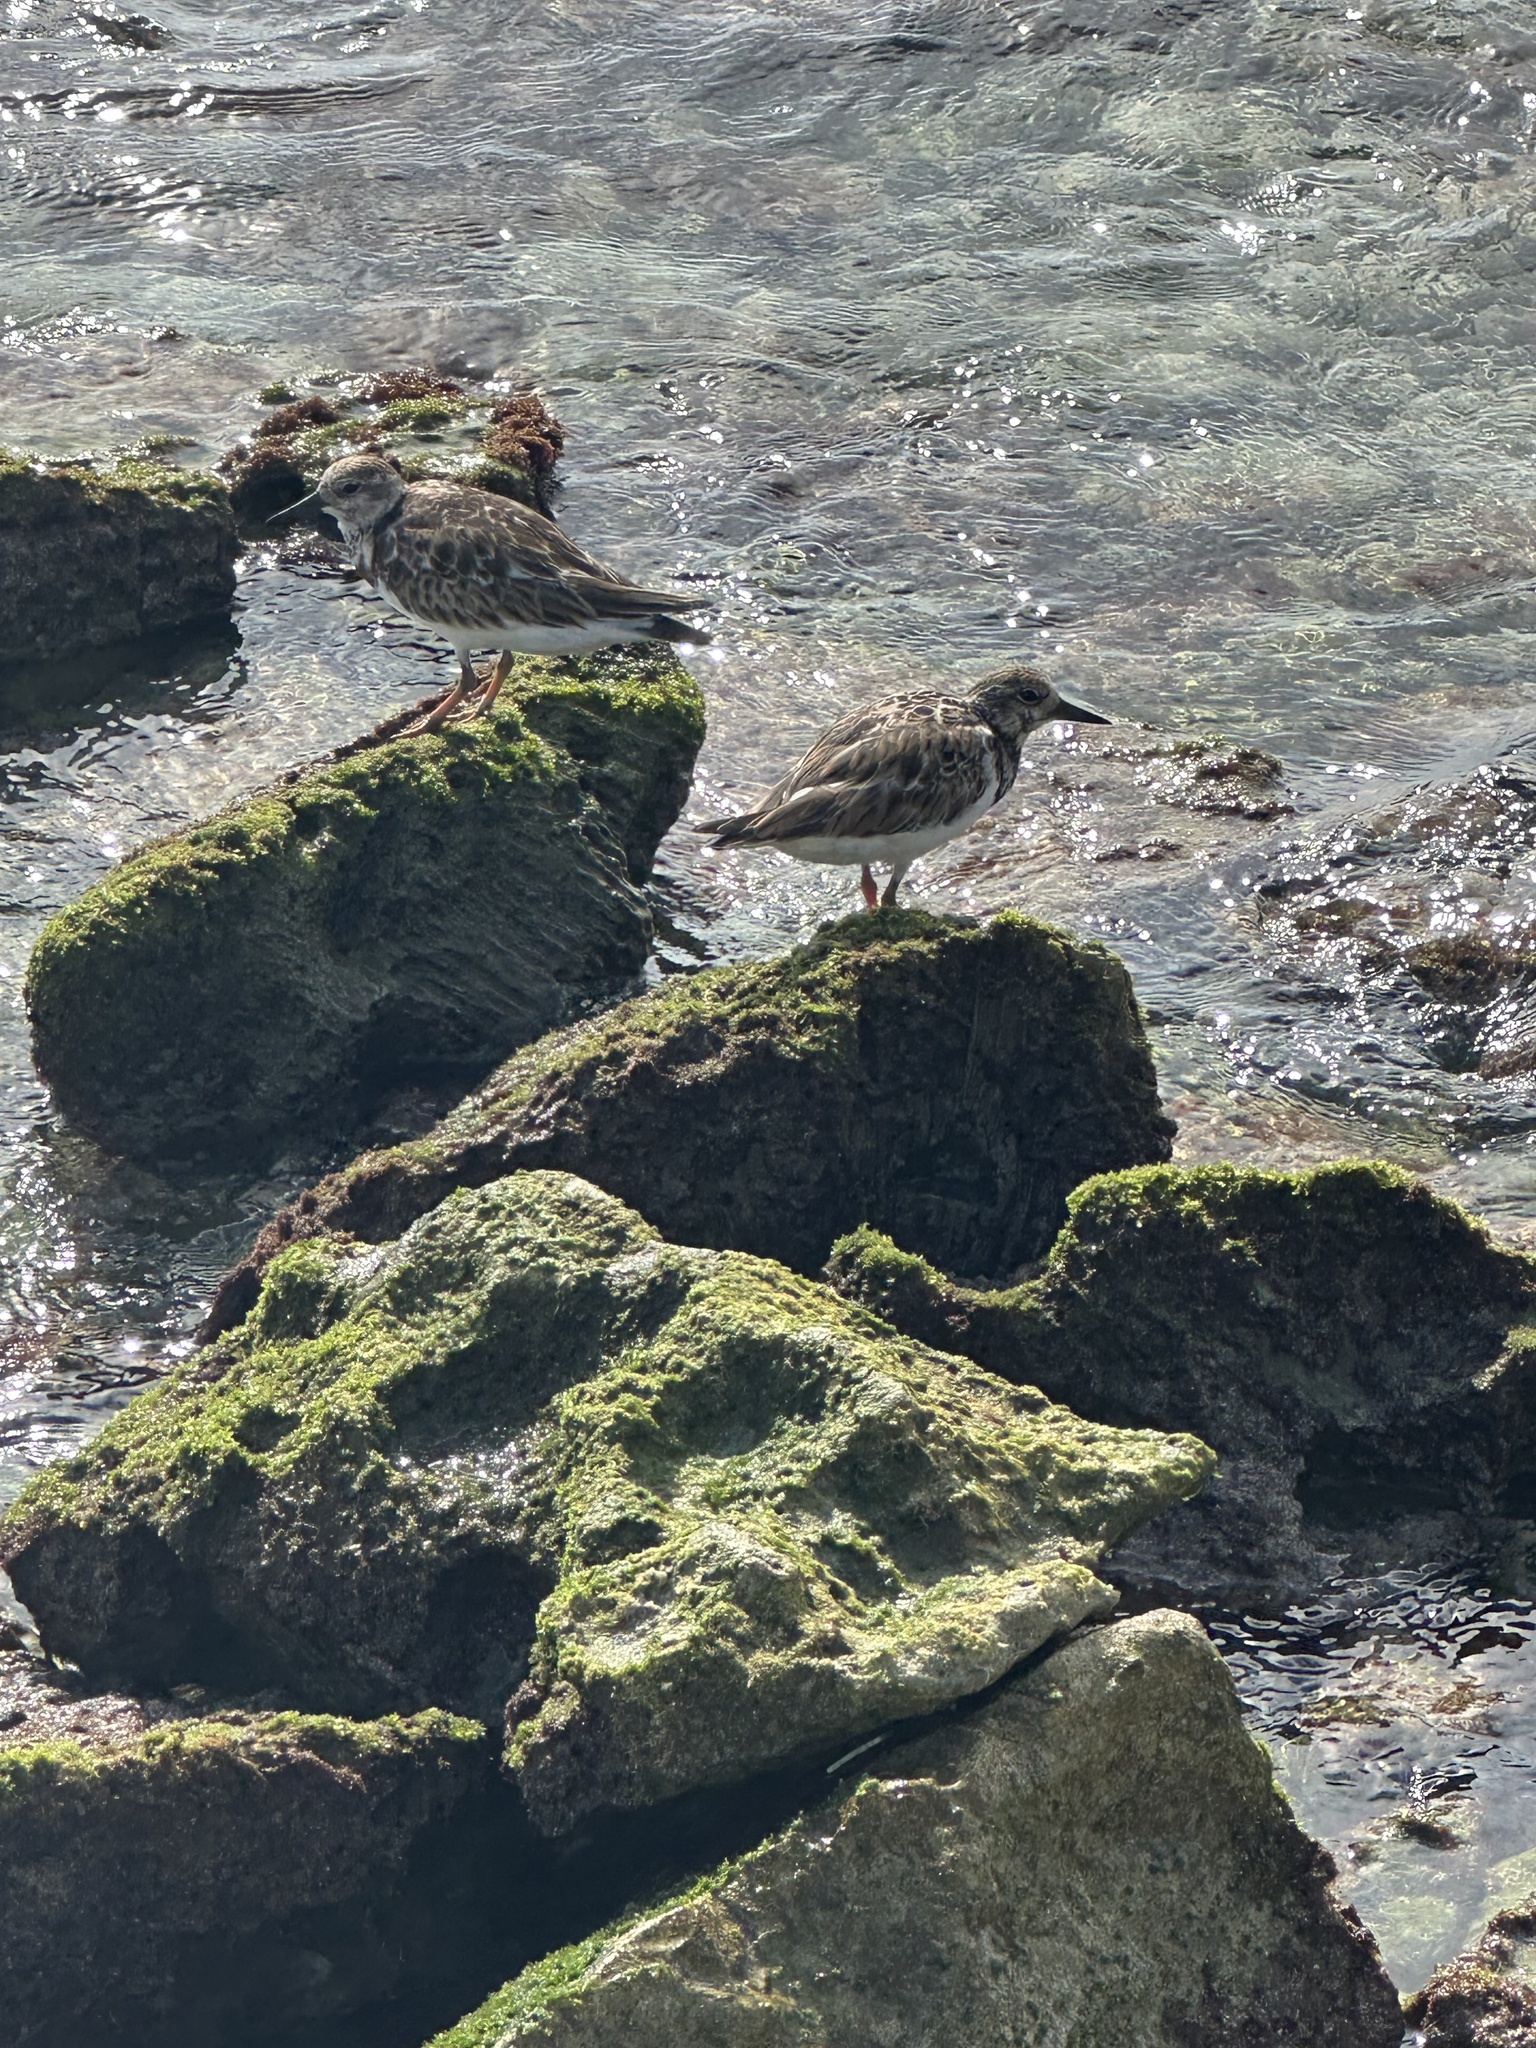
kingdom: Animalia
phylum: Chordata
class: Aves
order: Charadriiformes
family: Scolopacidae
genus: Arenaria
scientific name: Arenaria interpres
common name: Ruddy turnstone
